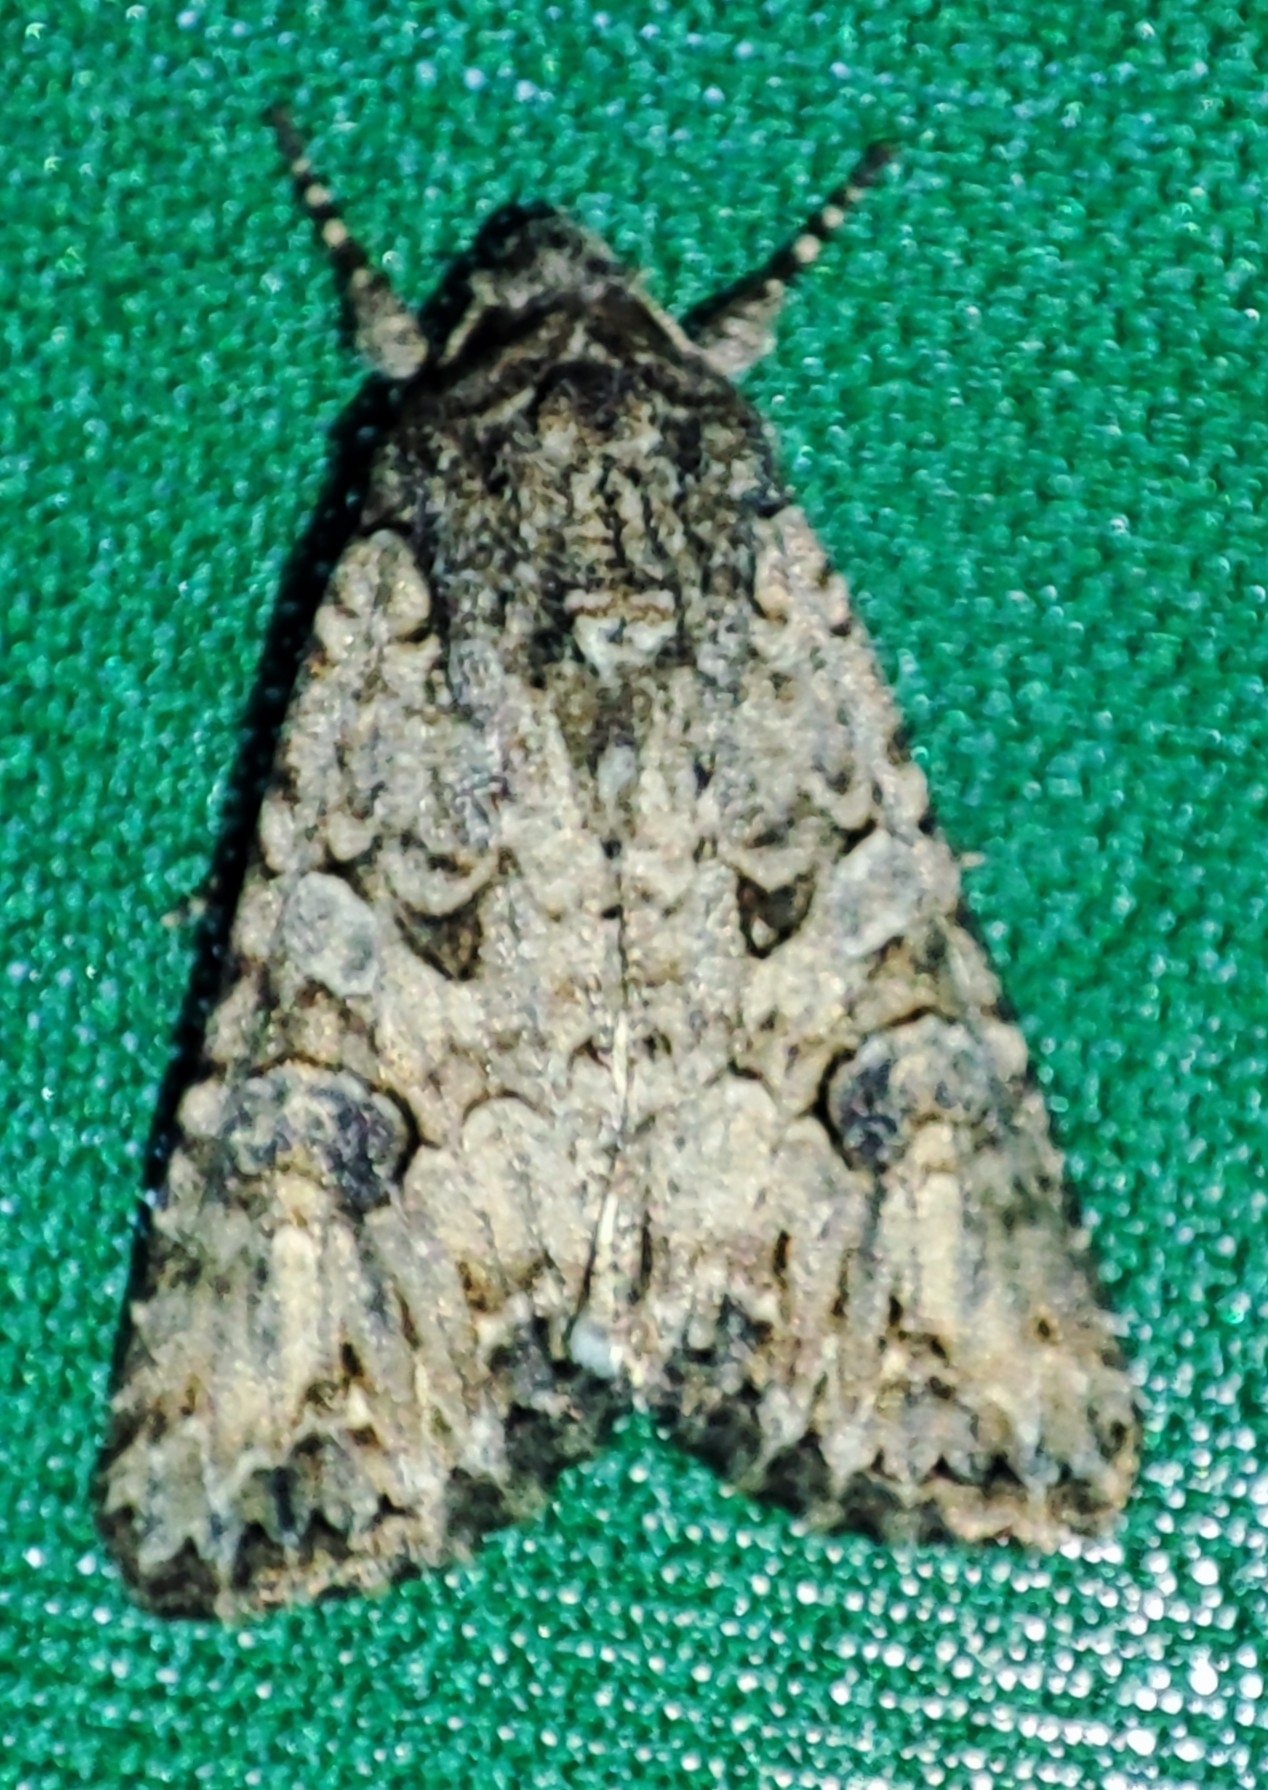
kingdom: Animalia
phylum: Arthropoda
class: Insecta
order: Lepidoptera
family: Noctuidae
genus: Anarta
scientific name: Anarta trifolii
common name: Clover cutworm moth
